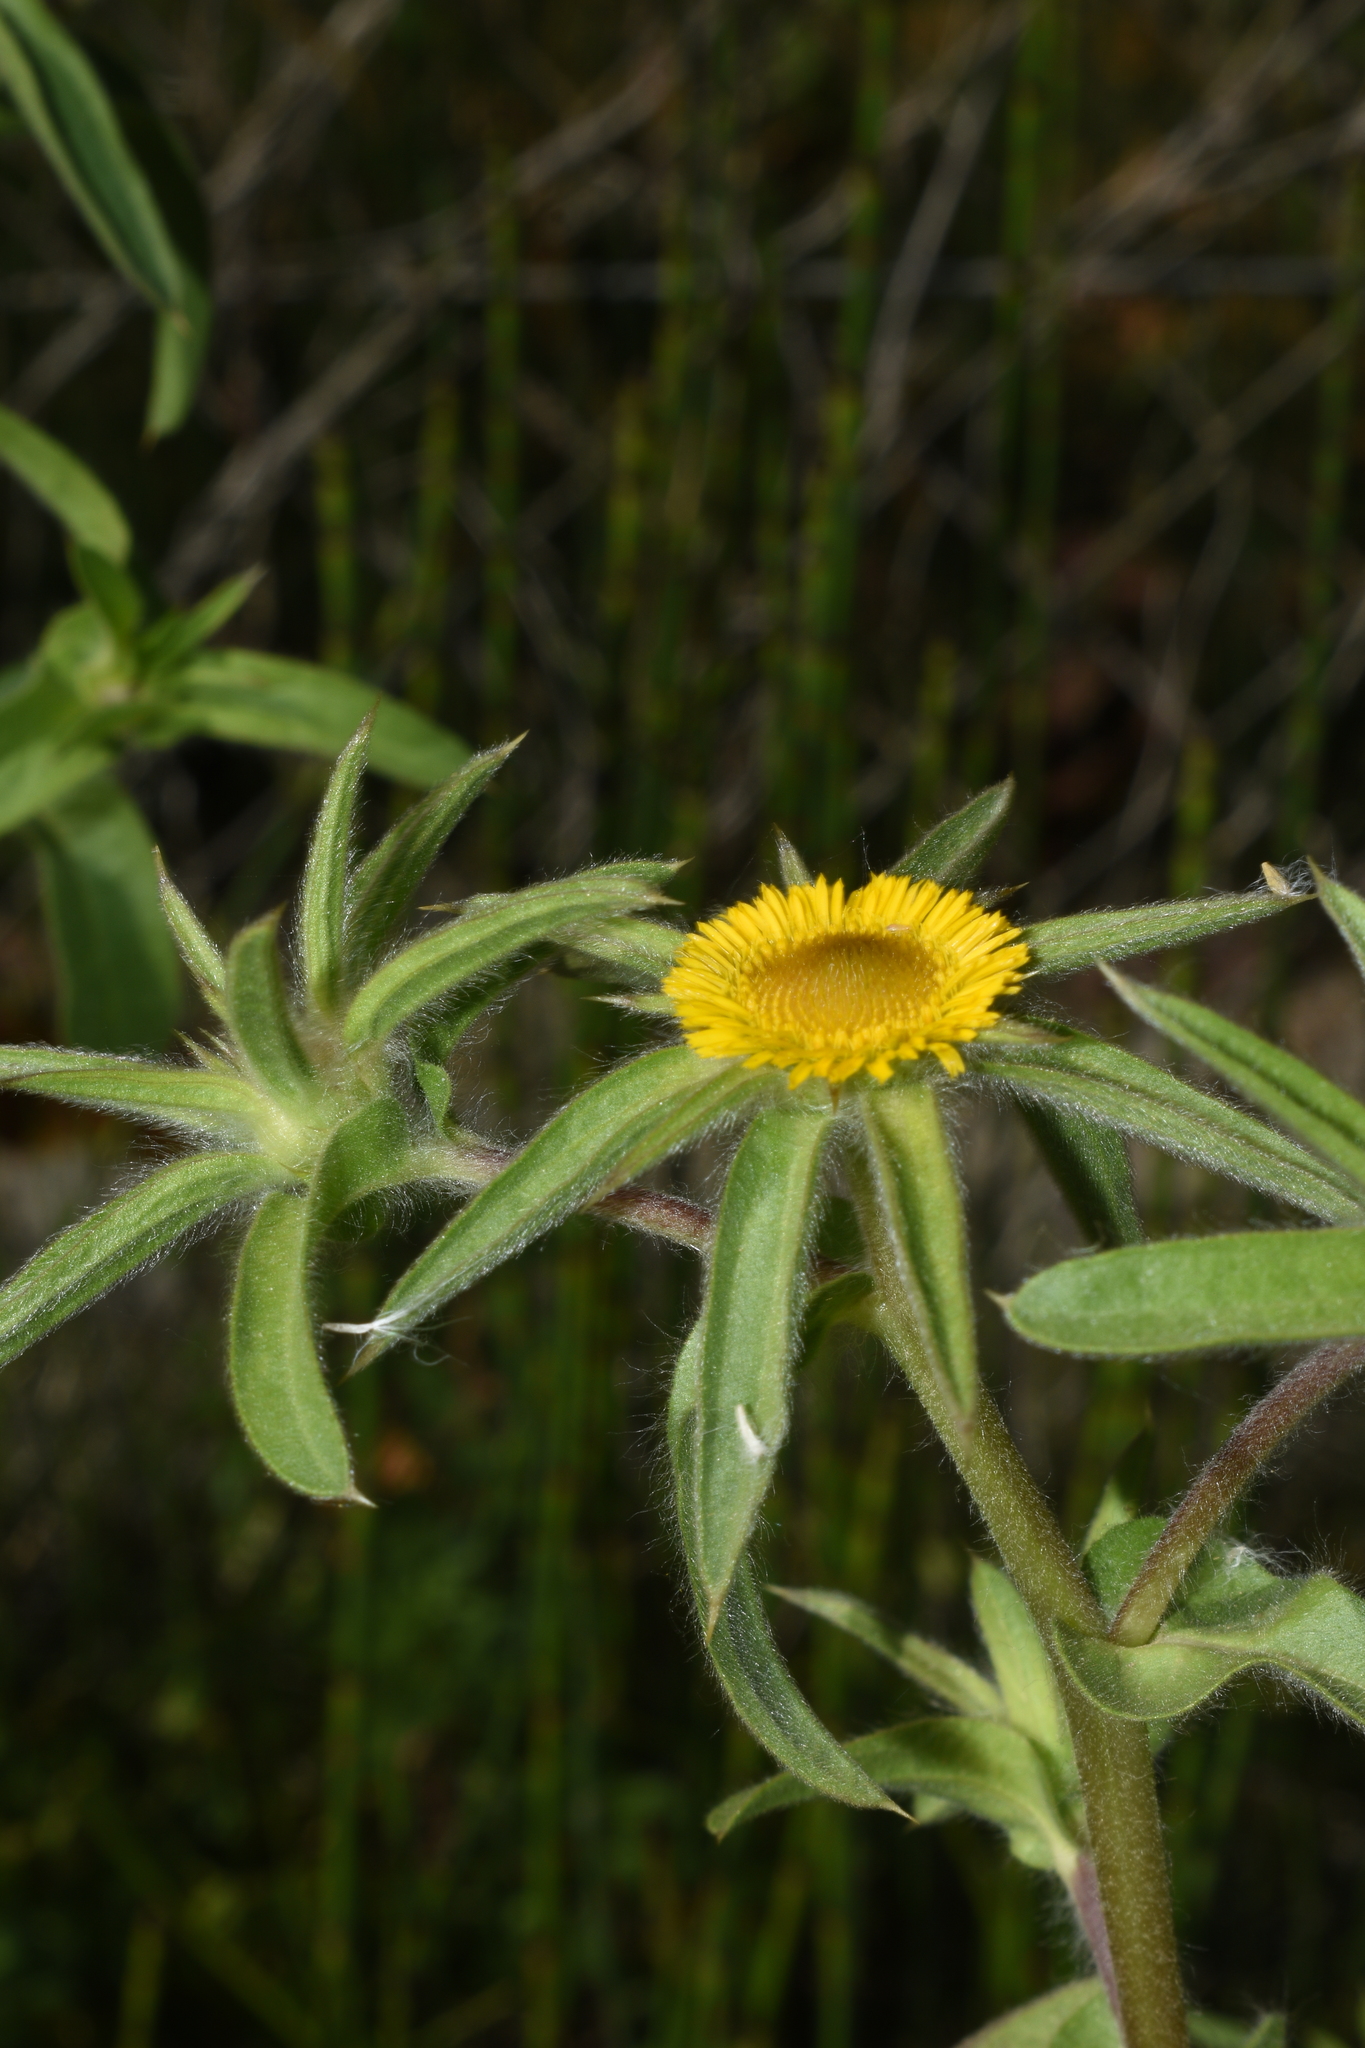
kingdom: Plantae
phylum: Tracheophyta
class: Magnoliopsida
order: Asterales
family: Asteraceae
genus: Pallenis
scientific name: Pallenis spinosa
